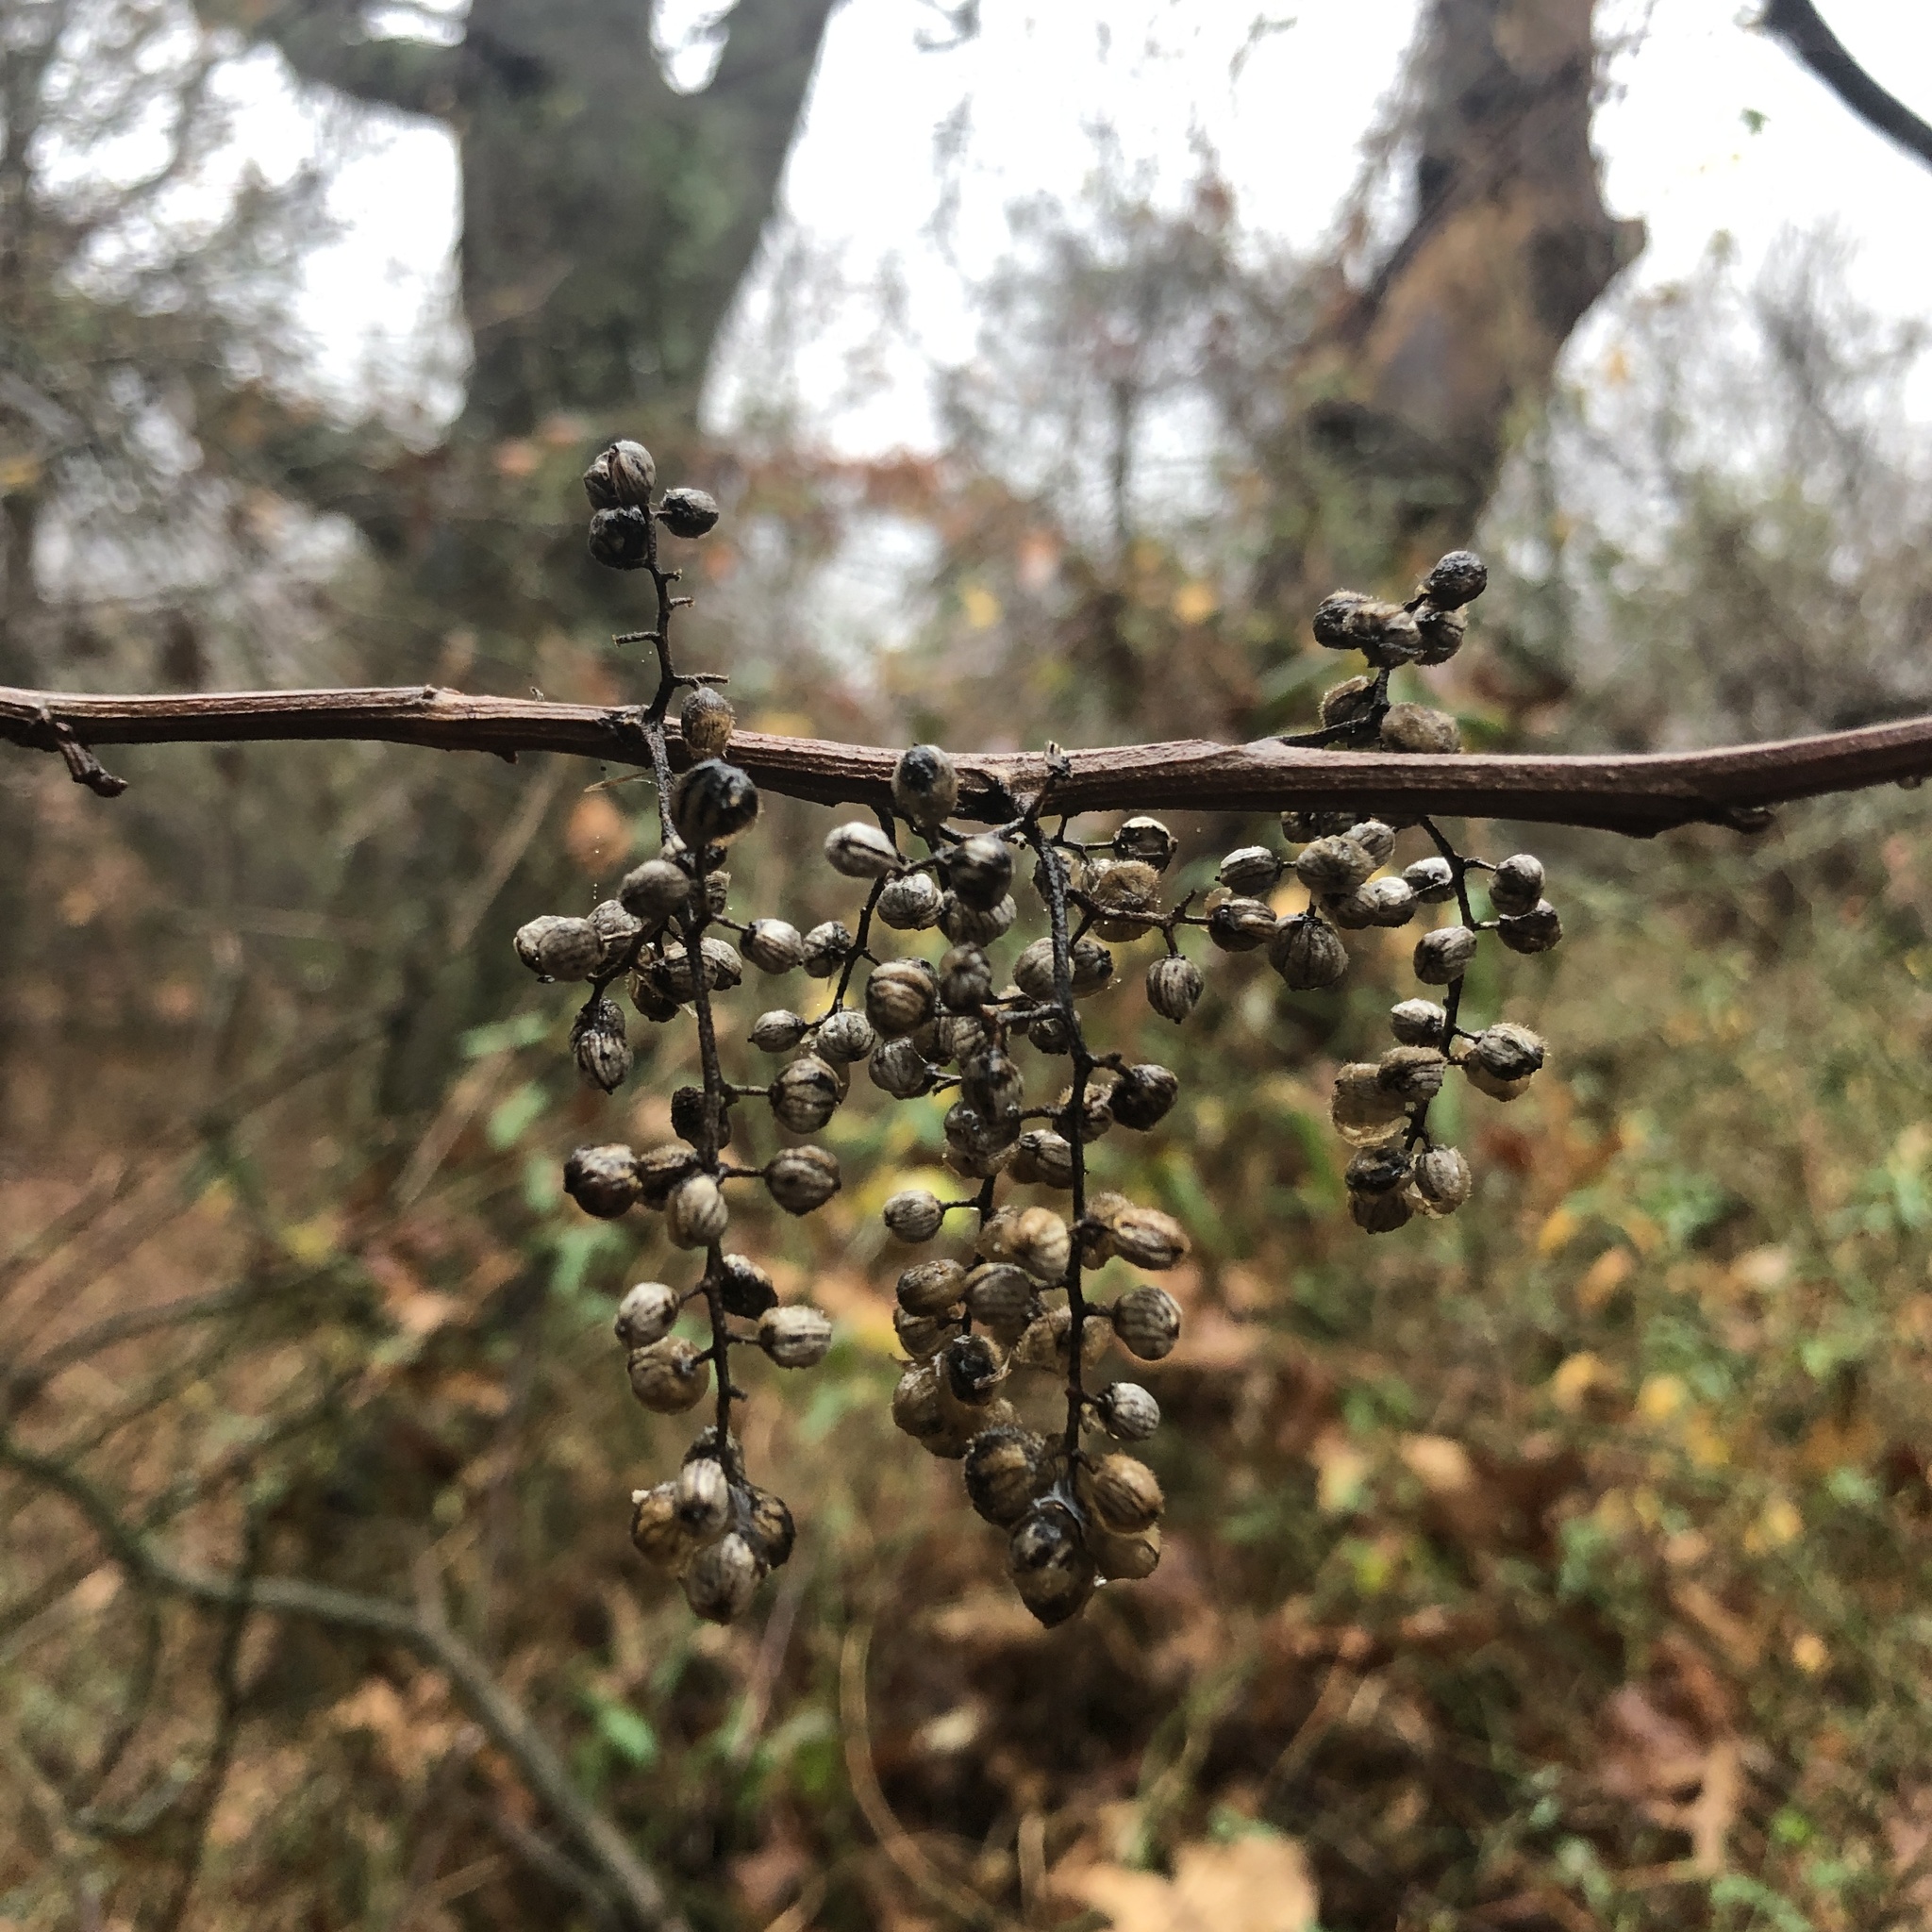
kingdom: Plantae
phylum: Tracheophyta
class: Magnoliopsida
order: Sapindales
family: Anacardiaceae
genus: Toxicodendron
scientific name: Toxicodendron radicans
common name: Poison ivy
